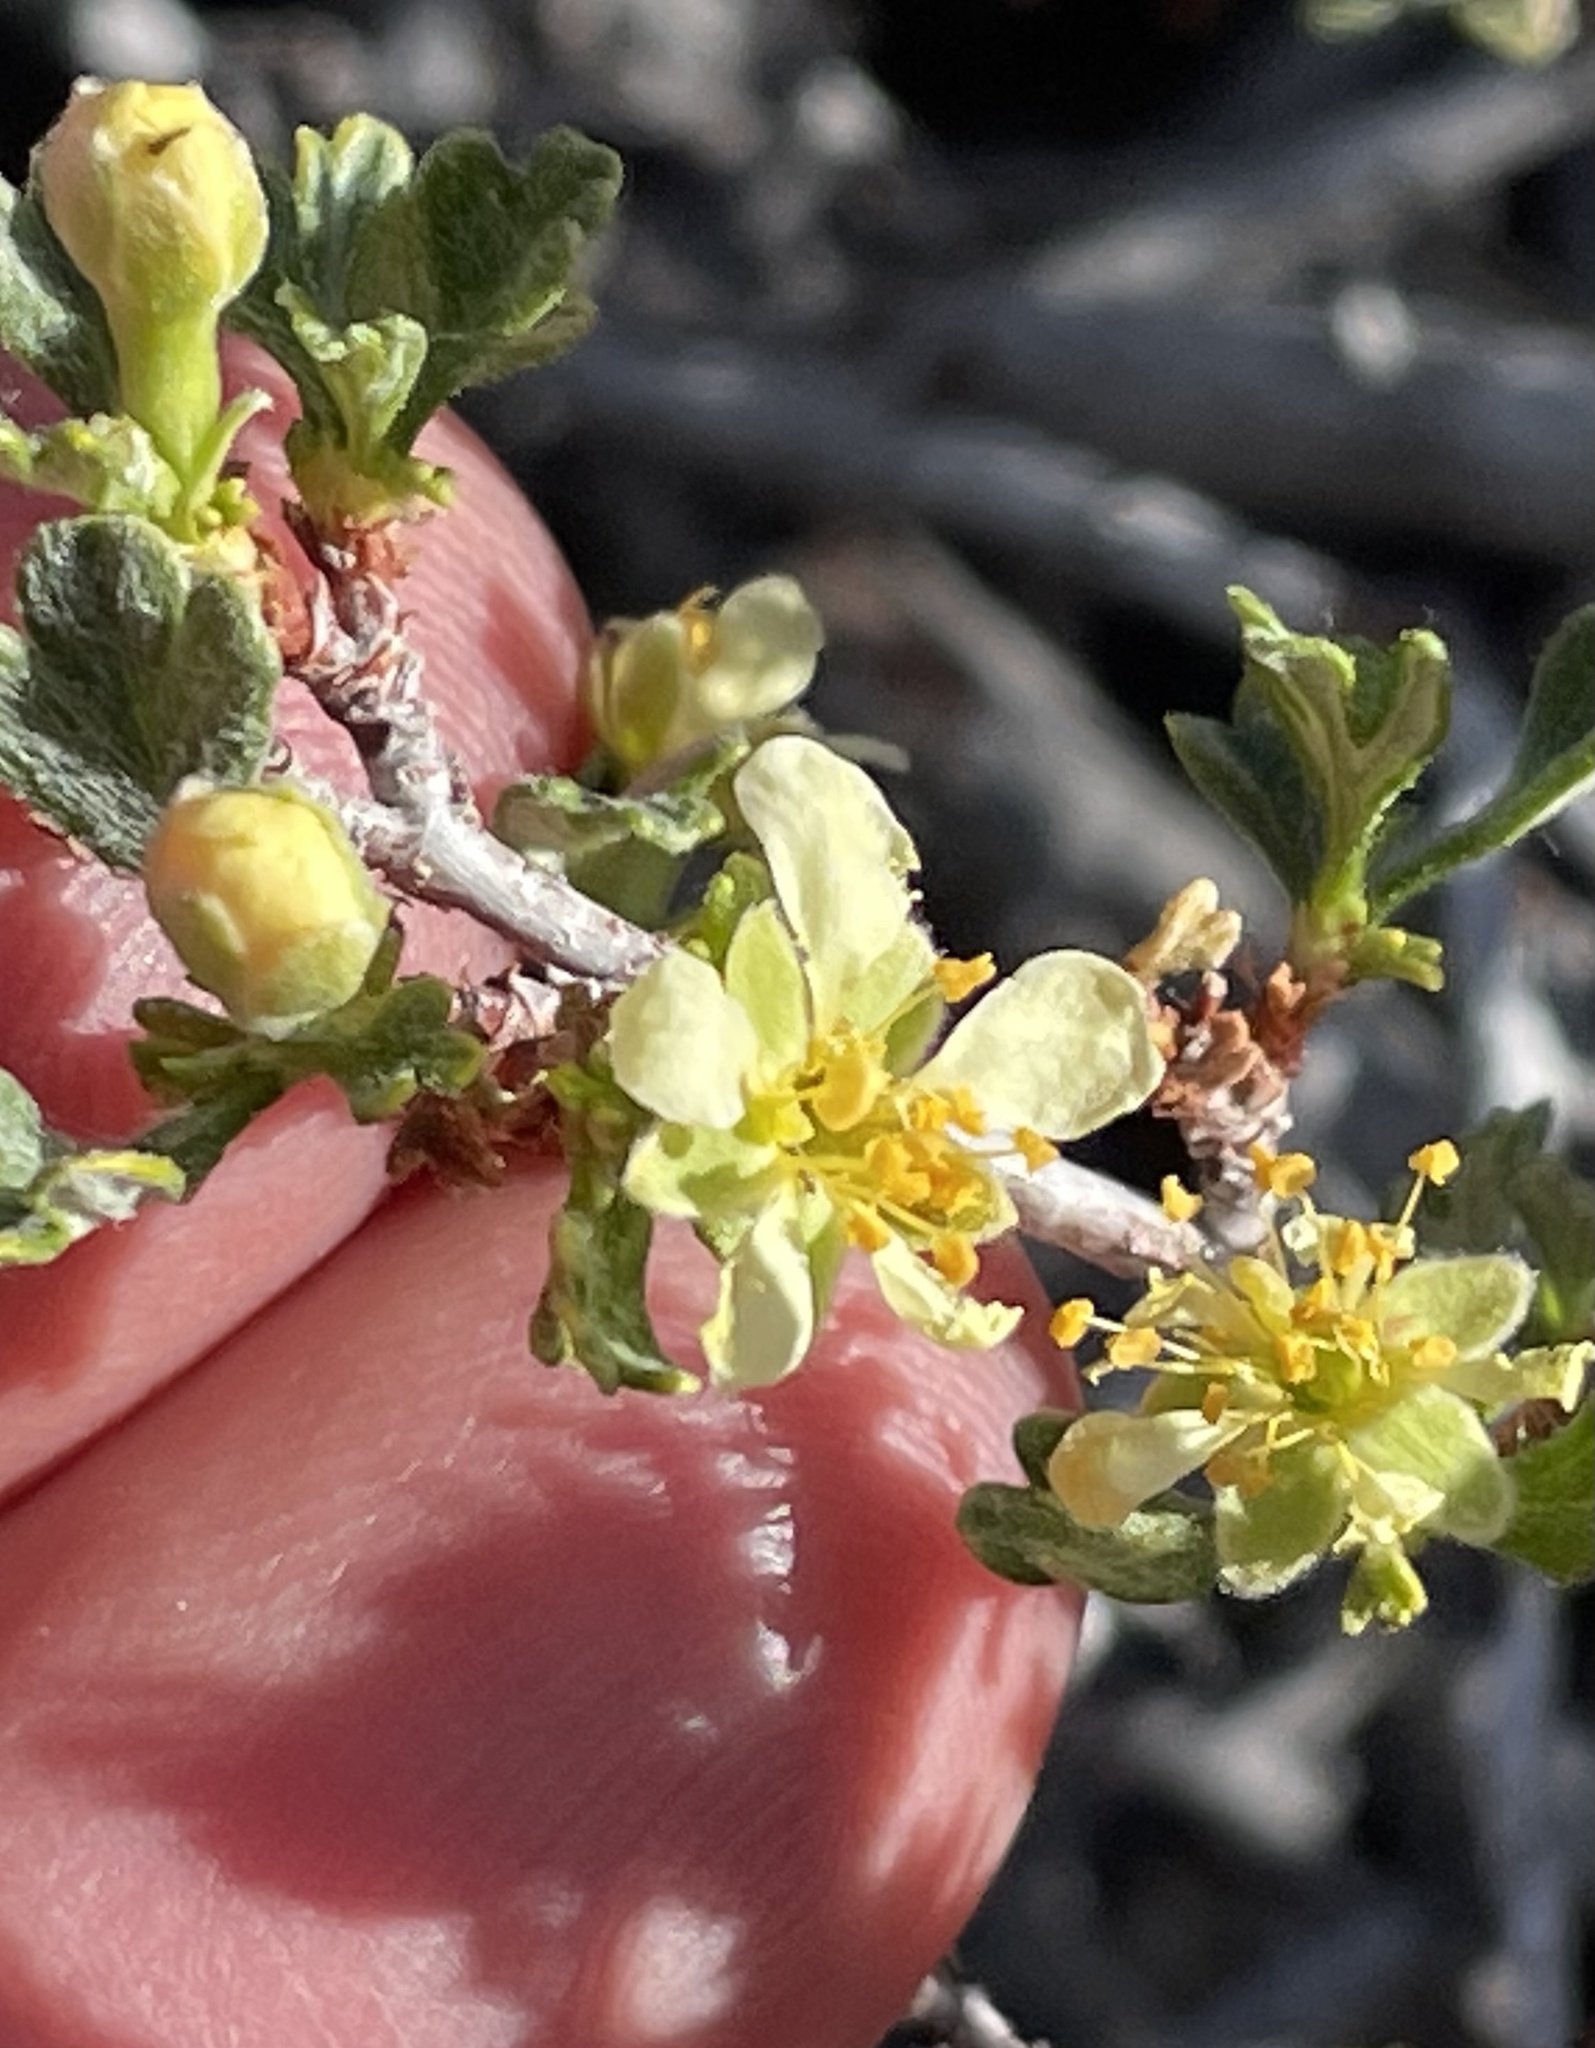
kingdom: Plantae
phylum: Tracheophyta
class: Magnoliopsida
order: Rosales
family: Rosaceae
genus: Purshia
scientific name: Purshia tridentata
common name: Antelope bitterbrush
